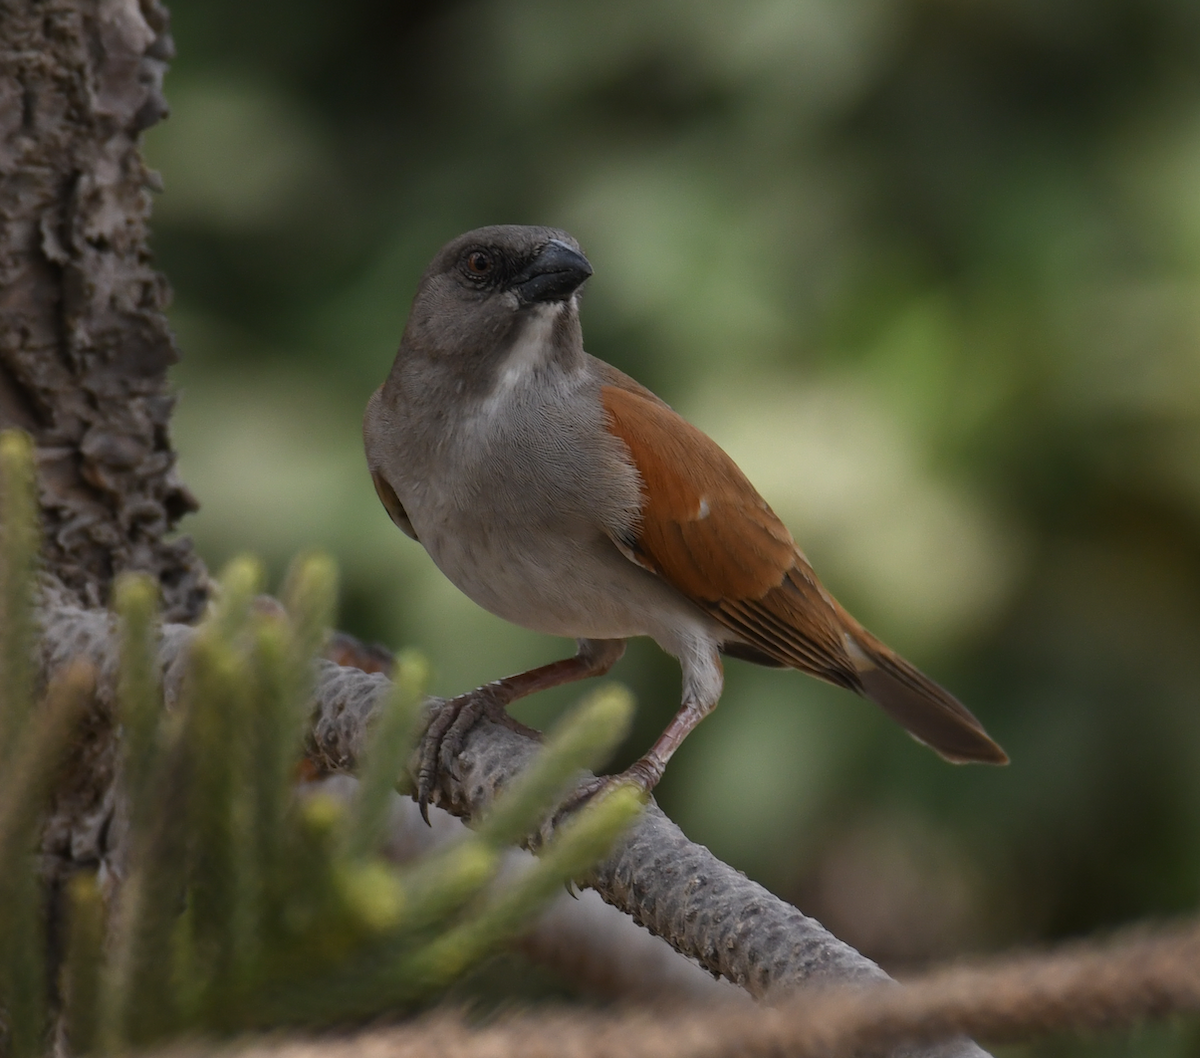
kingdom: Animalia
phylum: Chordata
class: Aves
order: Passeriformes
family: Passeridae
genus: Passer
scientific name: Passer griseus
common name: Northern grey-headed sparrow
